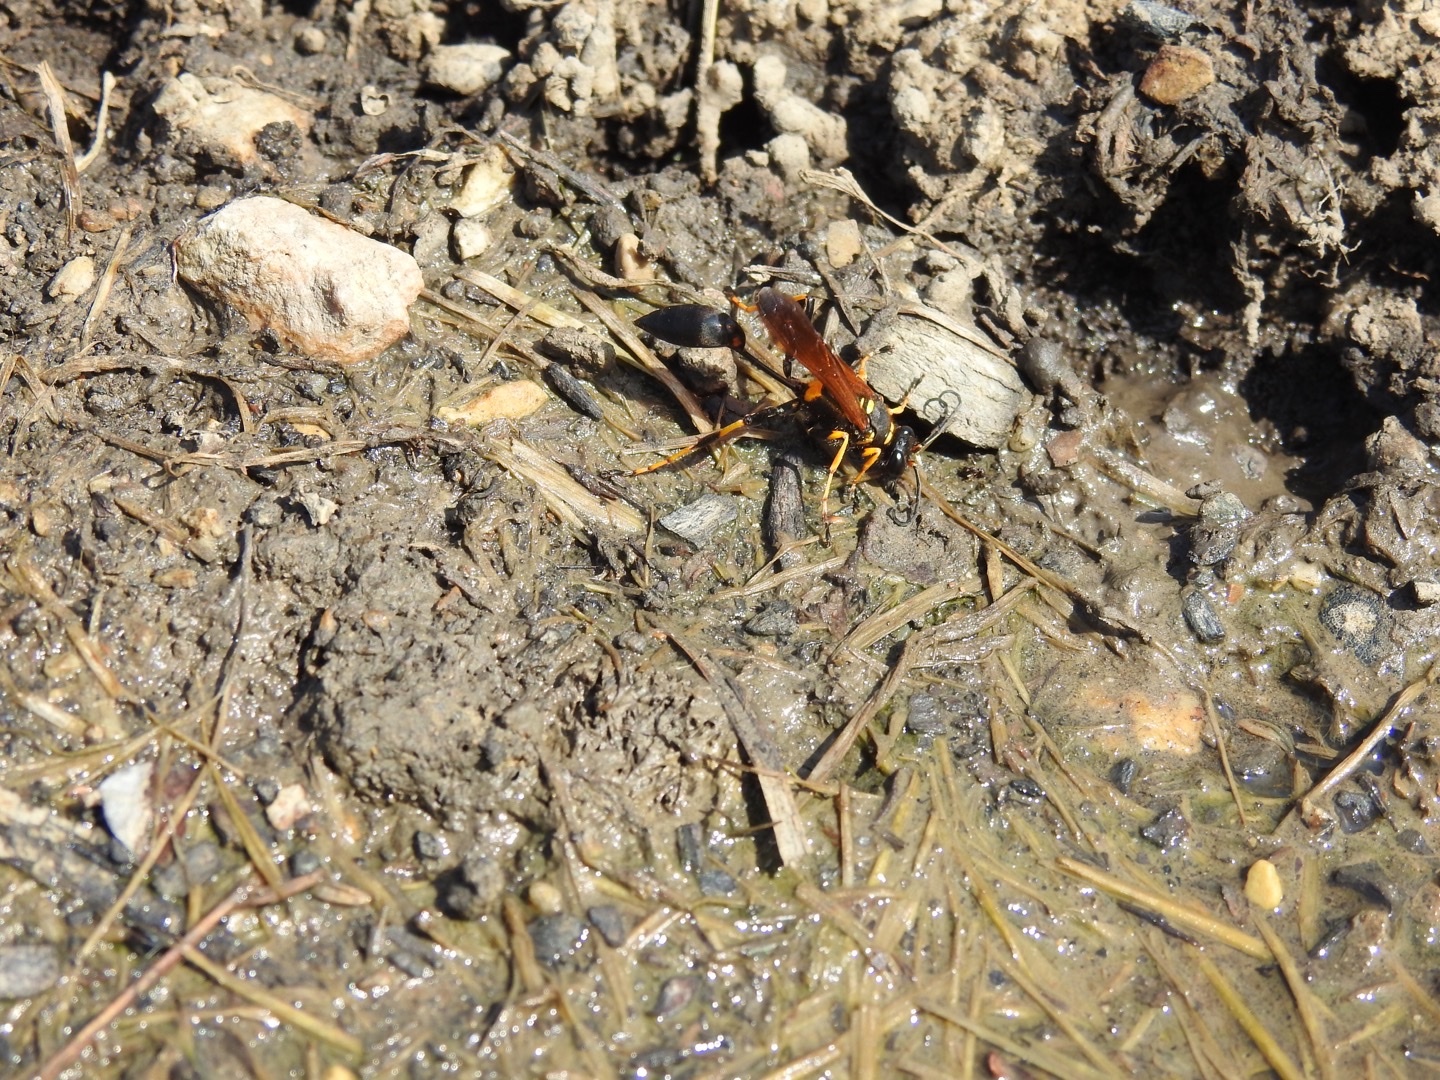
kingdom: Animalia
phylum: Arthropoda
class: Insecta
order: Hymenoptera
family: Sphecidae
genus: Sceliphron
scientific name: Sceliphron caementarium
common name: Mud dauber
